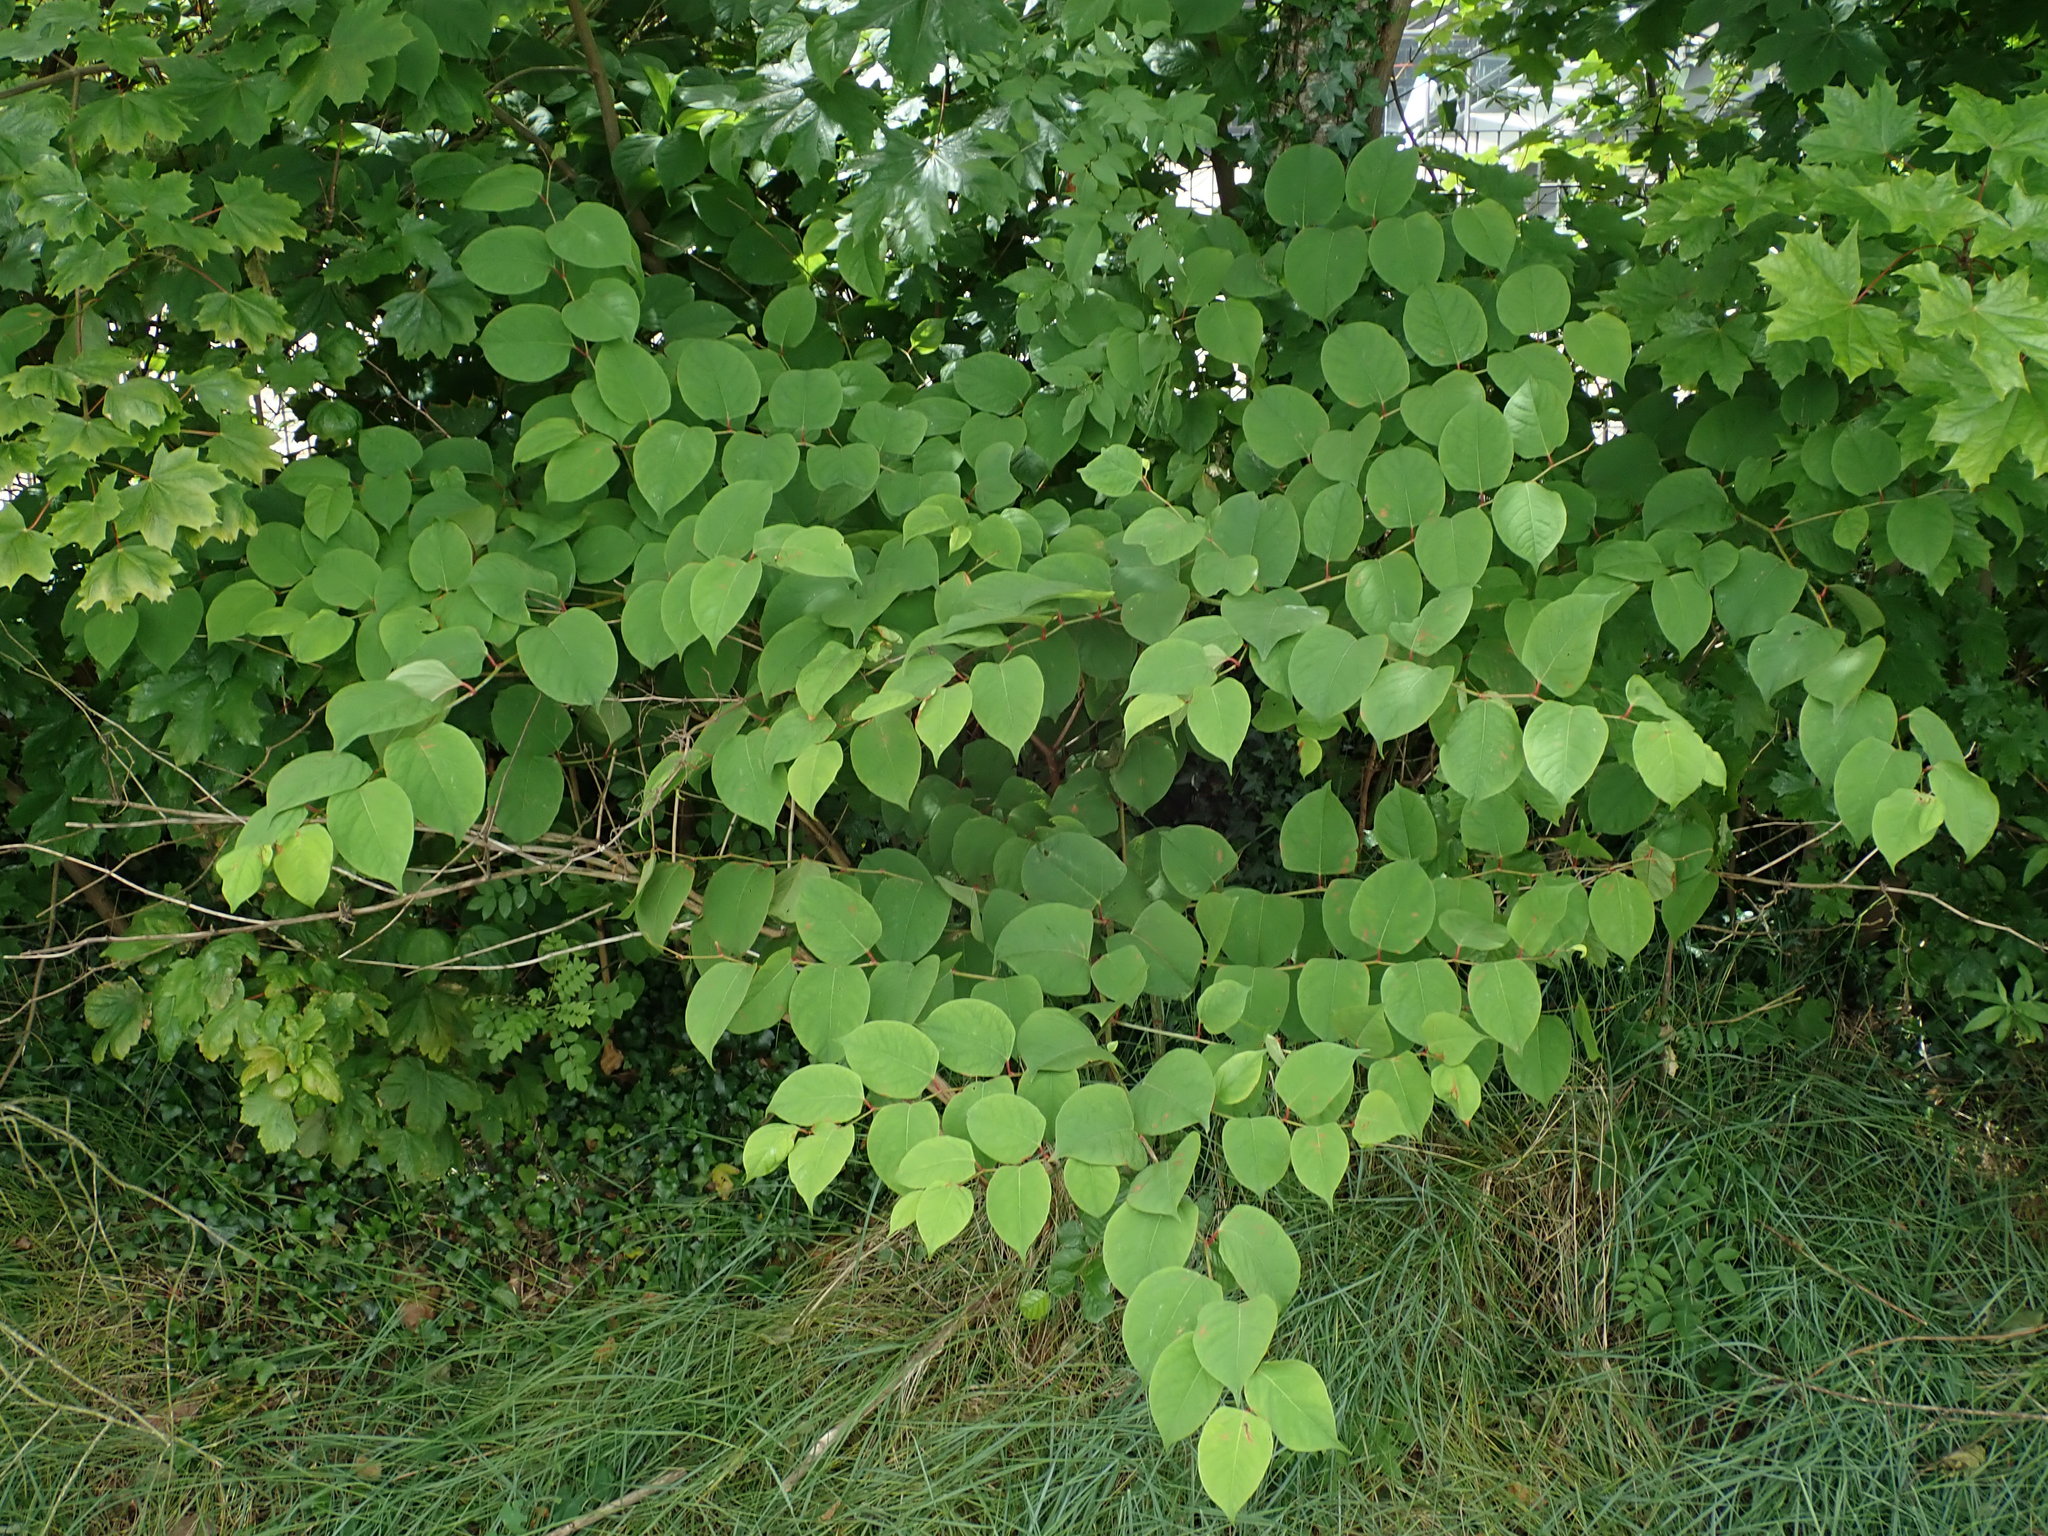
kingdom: Plantae
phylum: Tracheophyta
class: Magnoliopsida
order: Caryophyllales
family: Polygonaceae
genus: Reynoutria
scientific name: Reynoutria japonica
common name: Japanese knotweed
